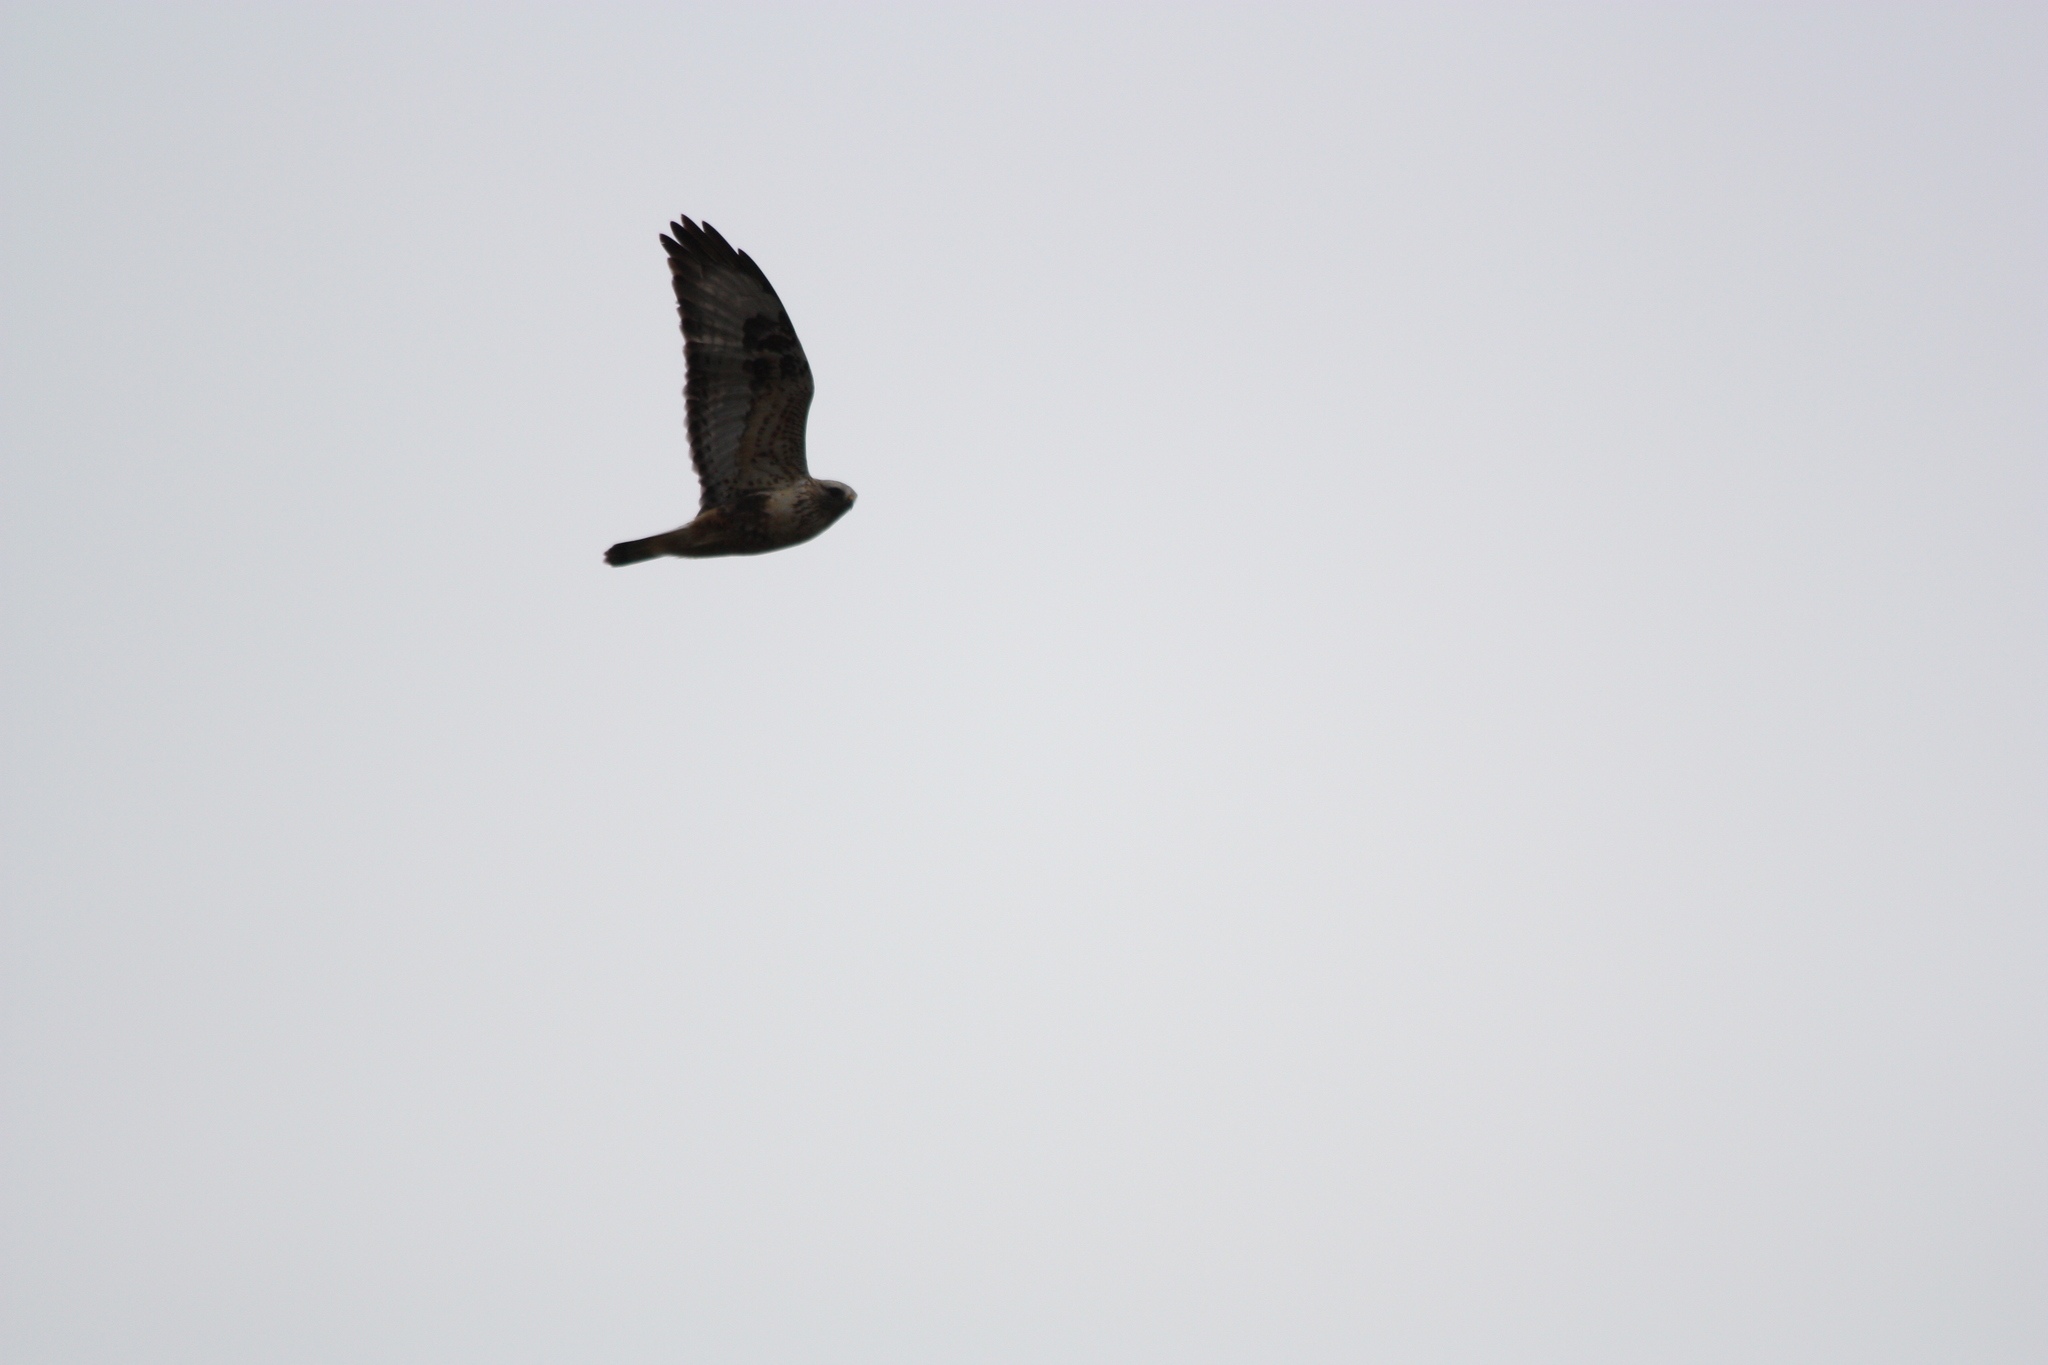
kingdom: Animalia
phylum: Chordata
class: Aves
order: Accipitriformes
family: Accipitridae
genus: Buteo
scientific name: Buteo lagopus
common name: Rough-legged buzzard
